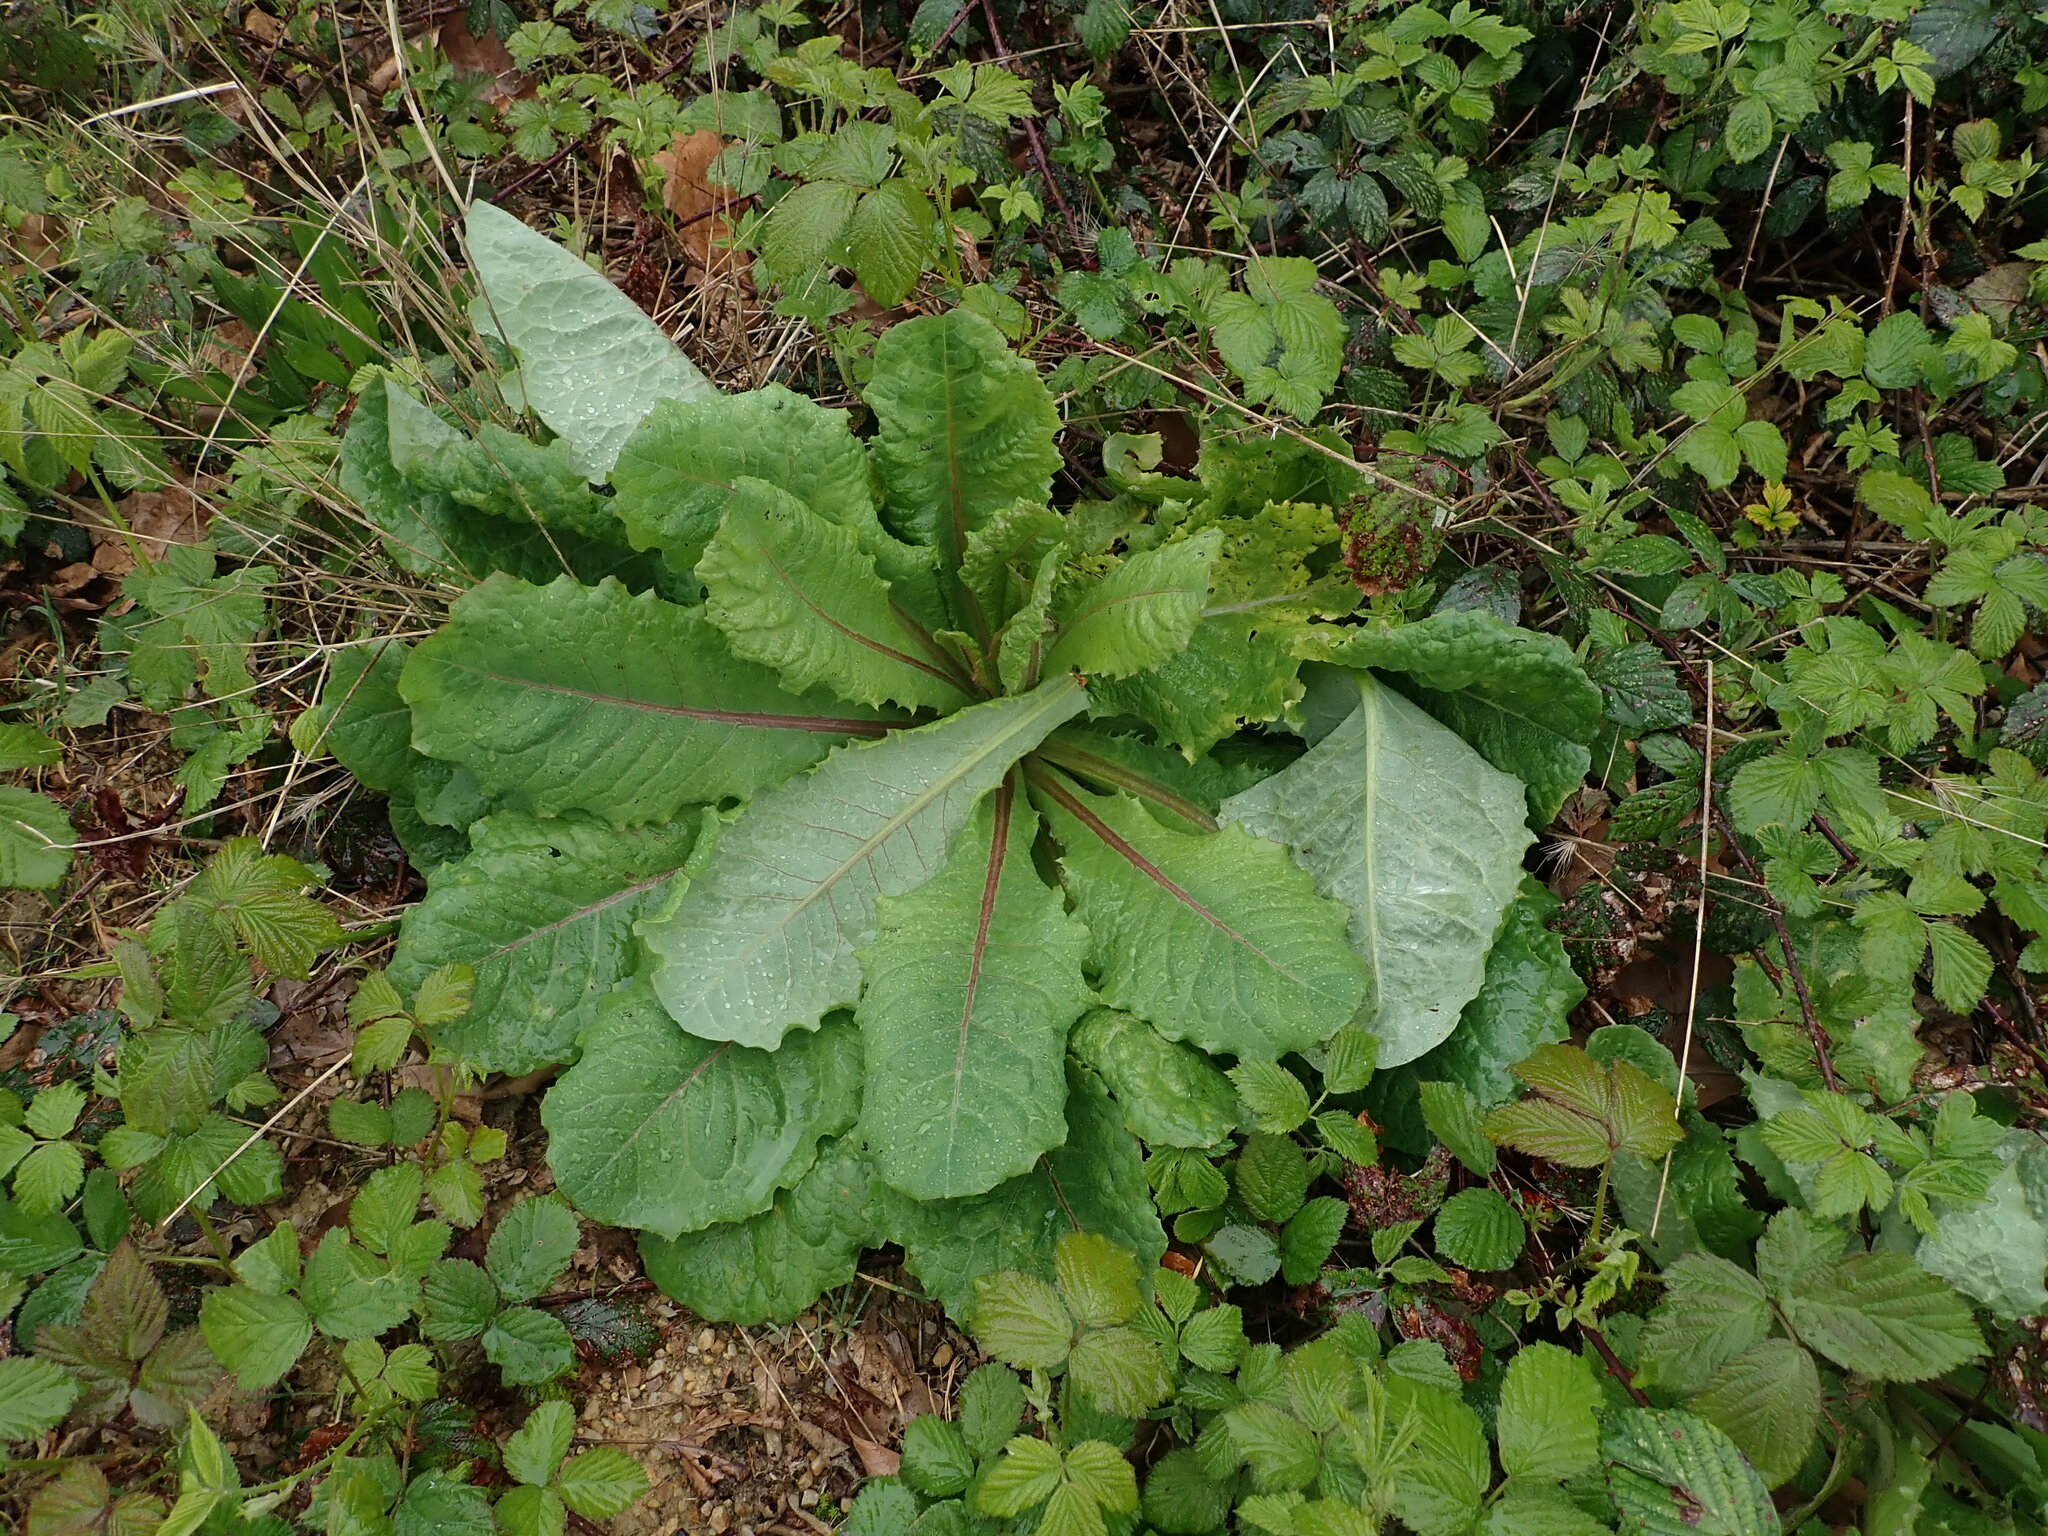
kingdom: Plantae
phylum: Tracheophyta
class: Magnoliopsida
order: Asterales
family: Asteraceae
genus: Lactuca
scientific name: Lactuca virosa
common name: Great lettuce
